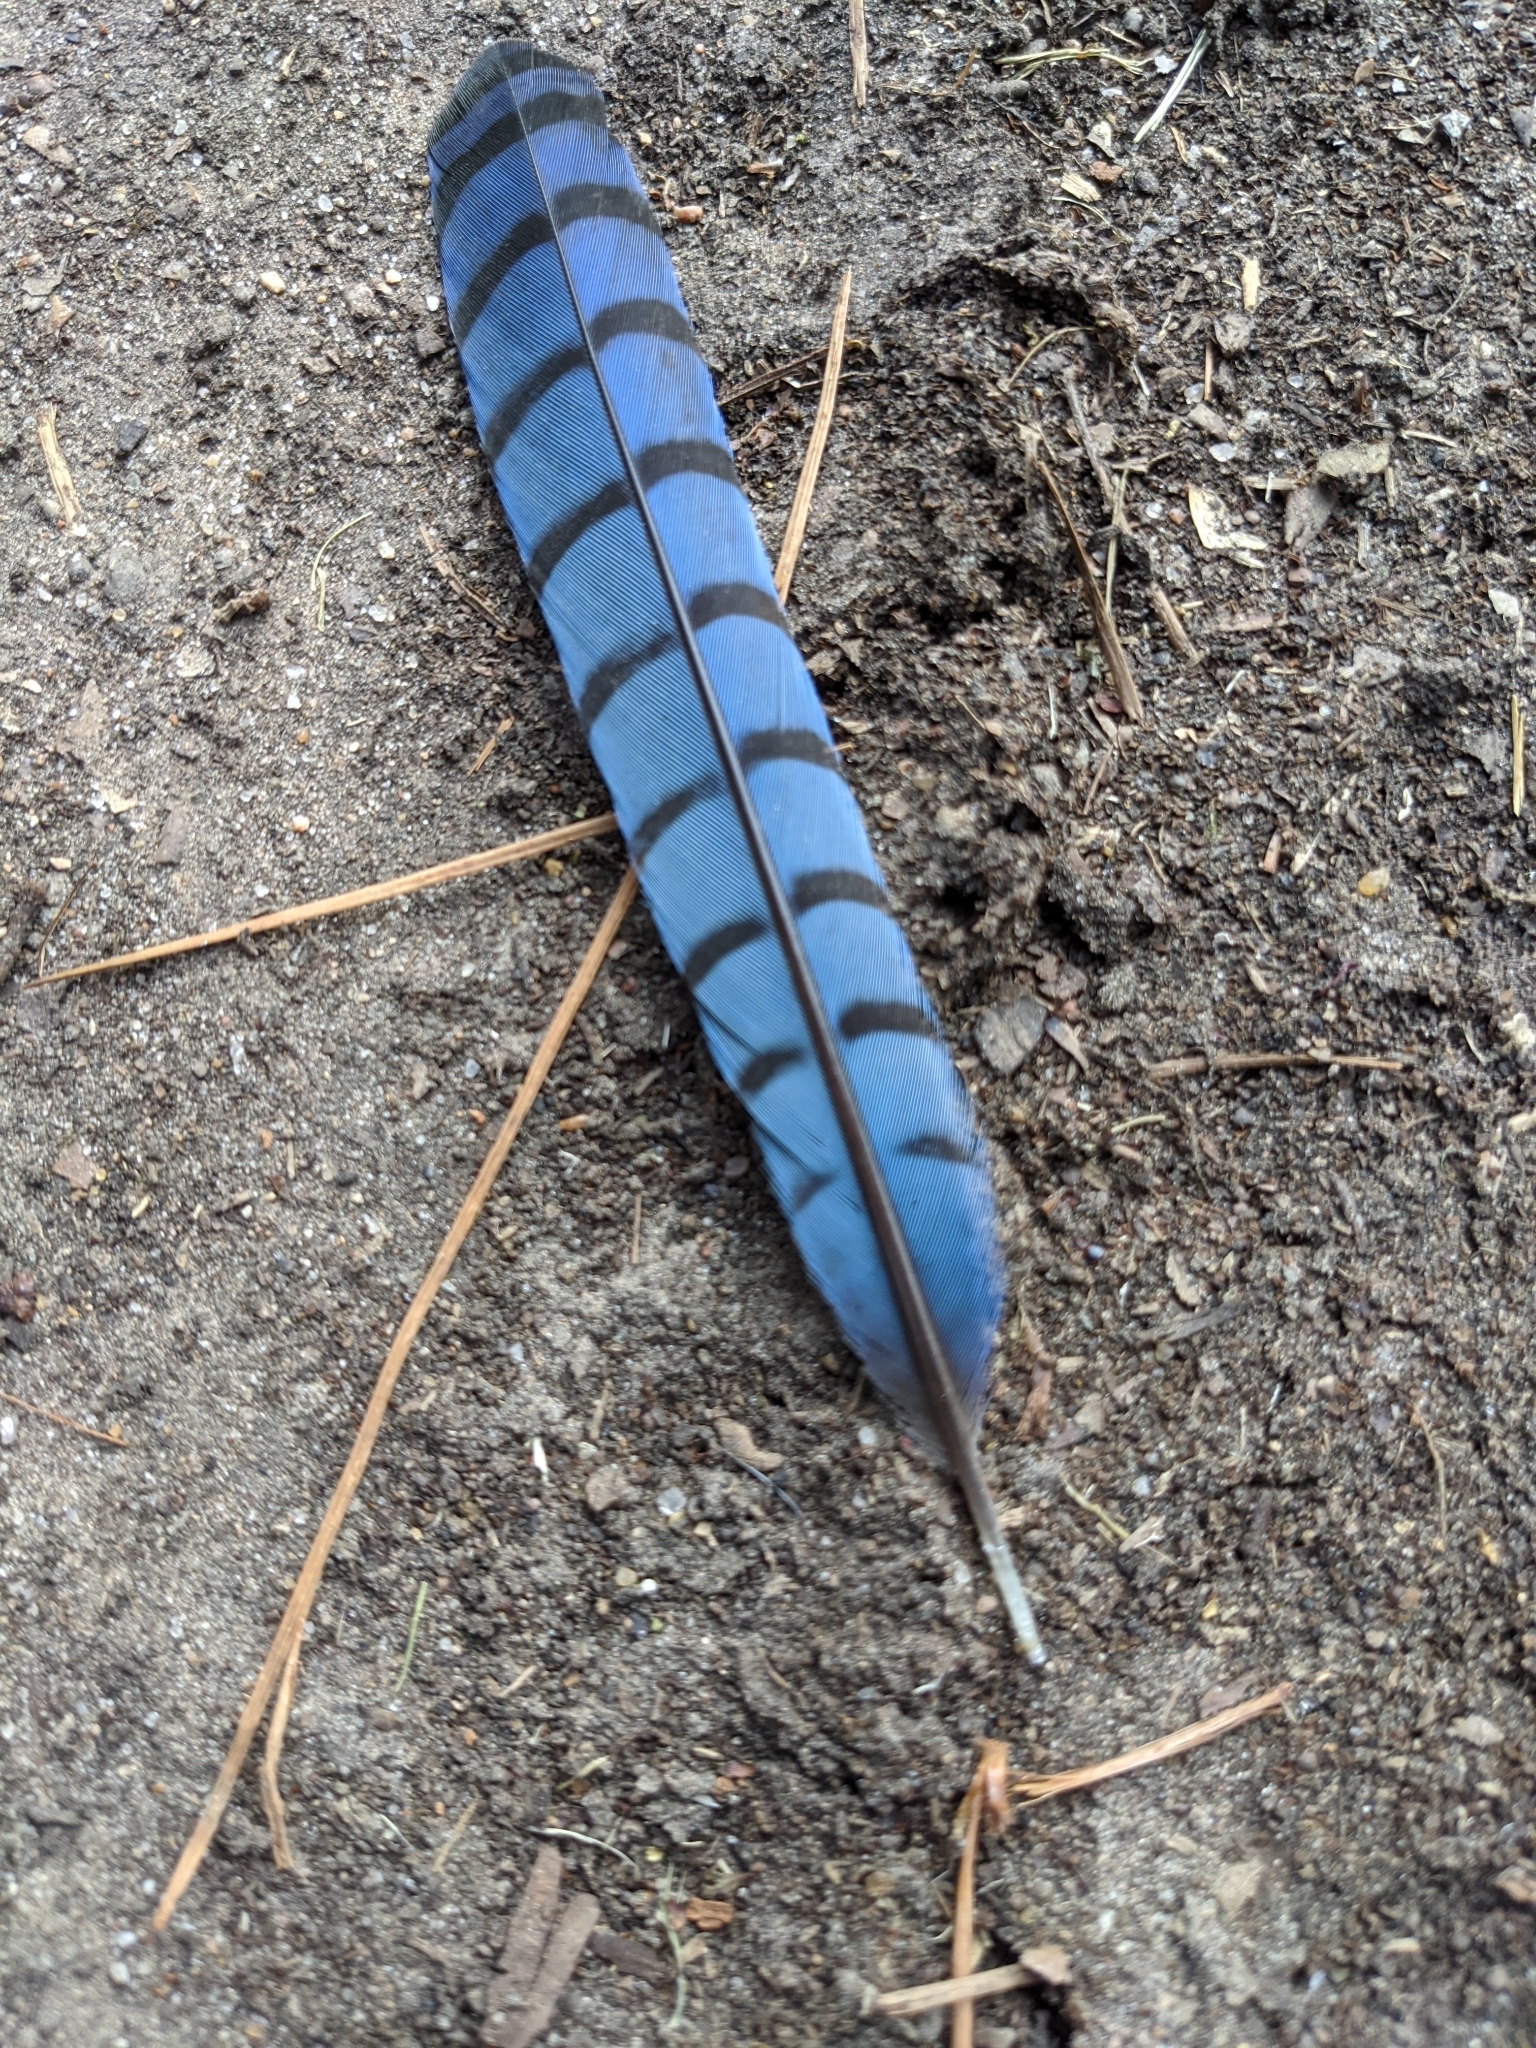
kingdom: Animalia
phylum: Chordata
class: Aves
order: Passeriformes
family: Corvidae
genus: Cyanocitta
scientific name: Cyanocitta cristata
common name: Blue jay
